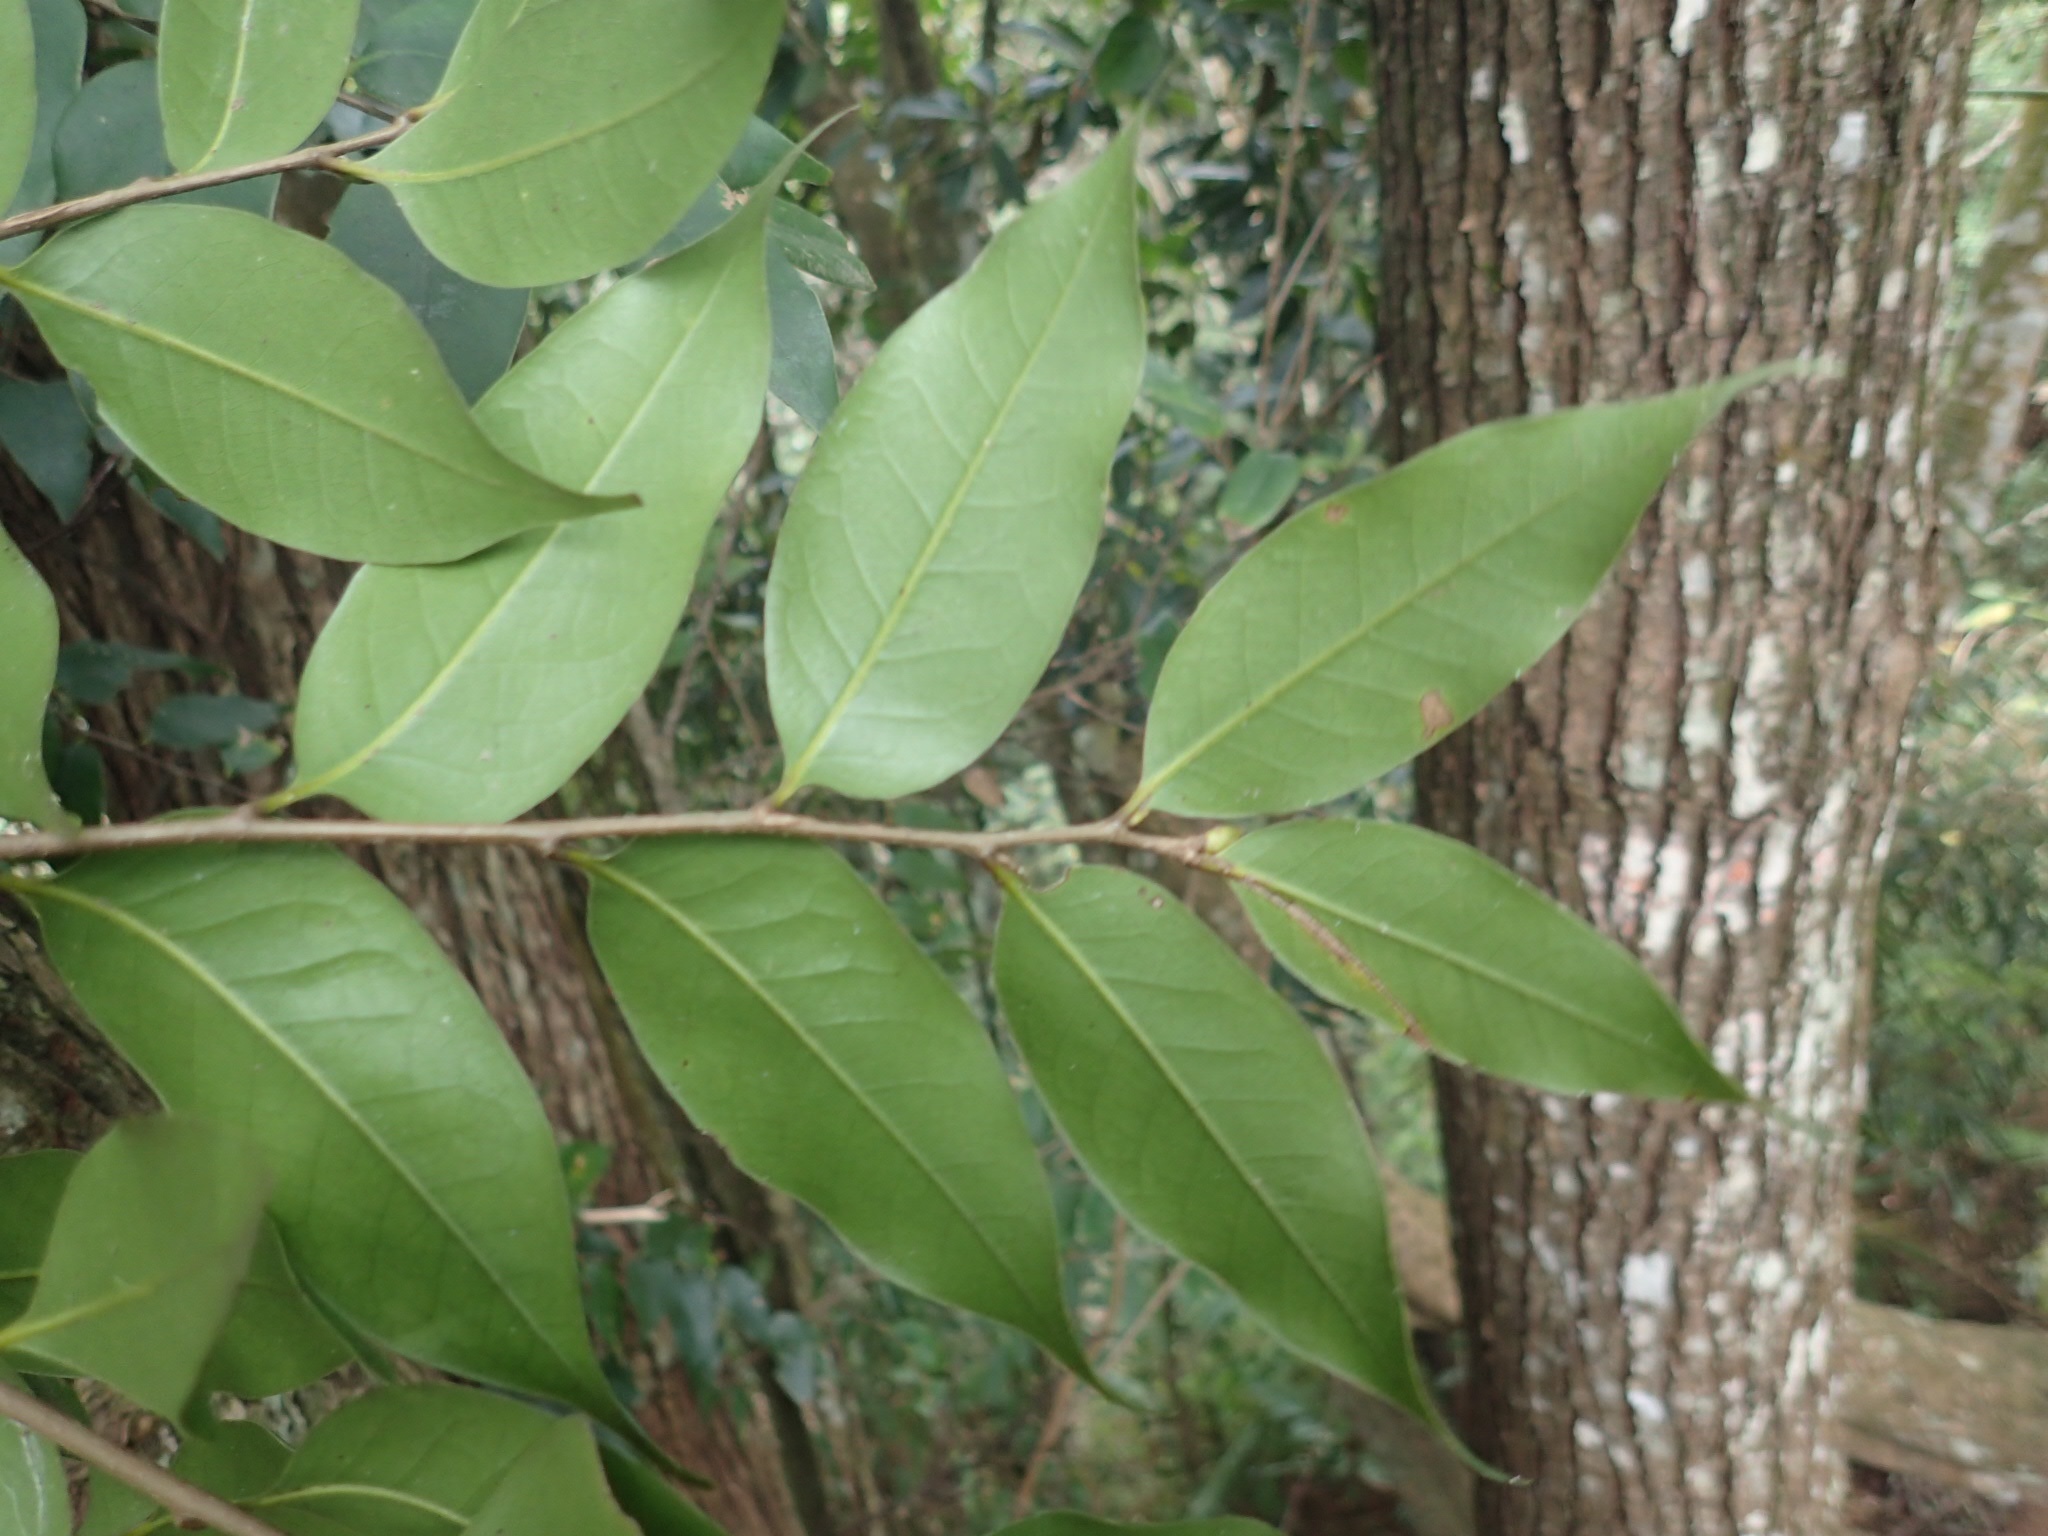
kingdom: Plantae
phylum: Tracheophyta
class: Magnoliopsida
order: Fagales
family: Fagaceae
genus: Castanopsis
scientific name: Castanopsis eyrei
